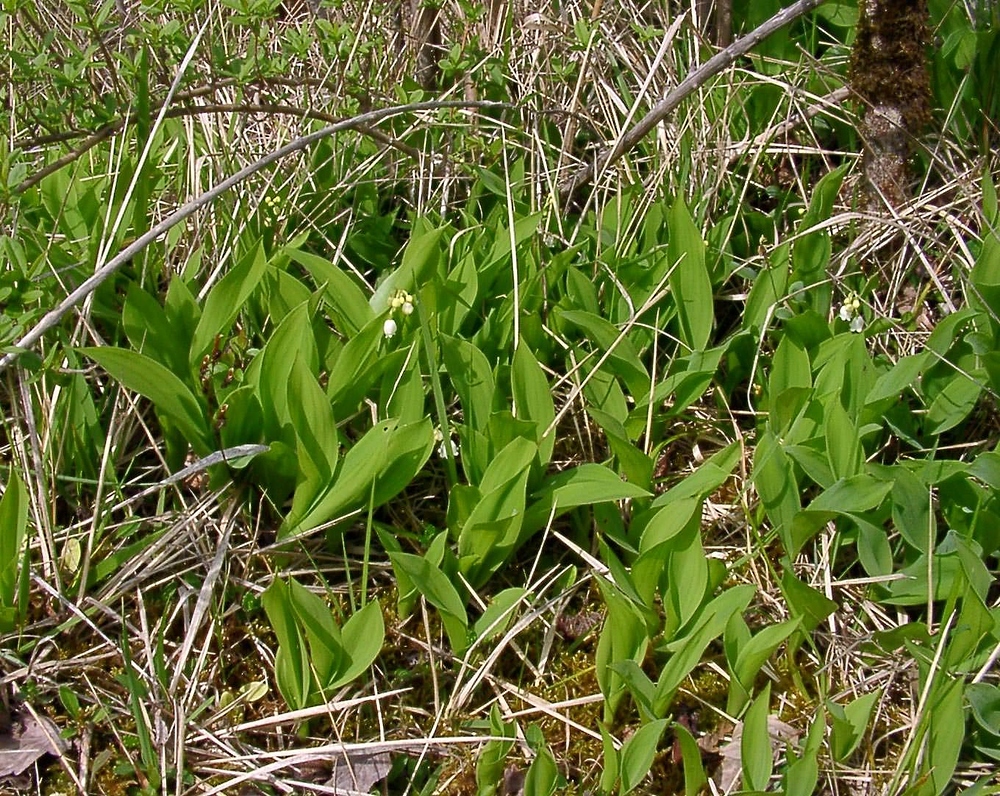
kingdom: Plantae
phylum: Tracheophyta
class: Liliopsida
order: Asparagales
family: Asparagaceae
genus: Convallaria
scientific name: Convallaria majalis
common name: Lily-of-the-valley
